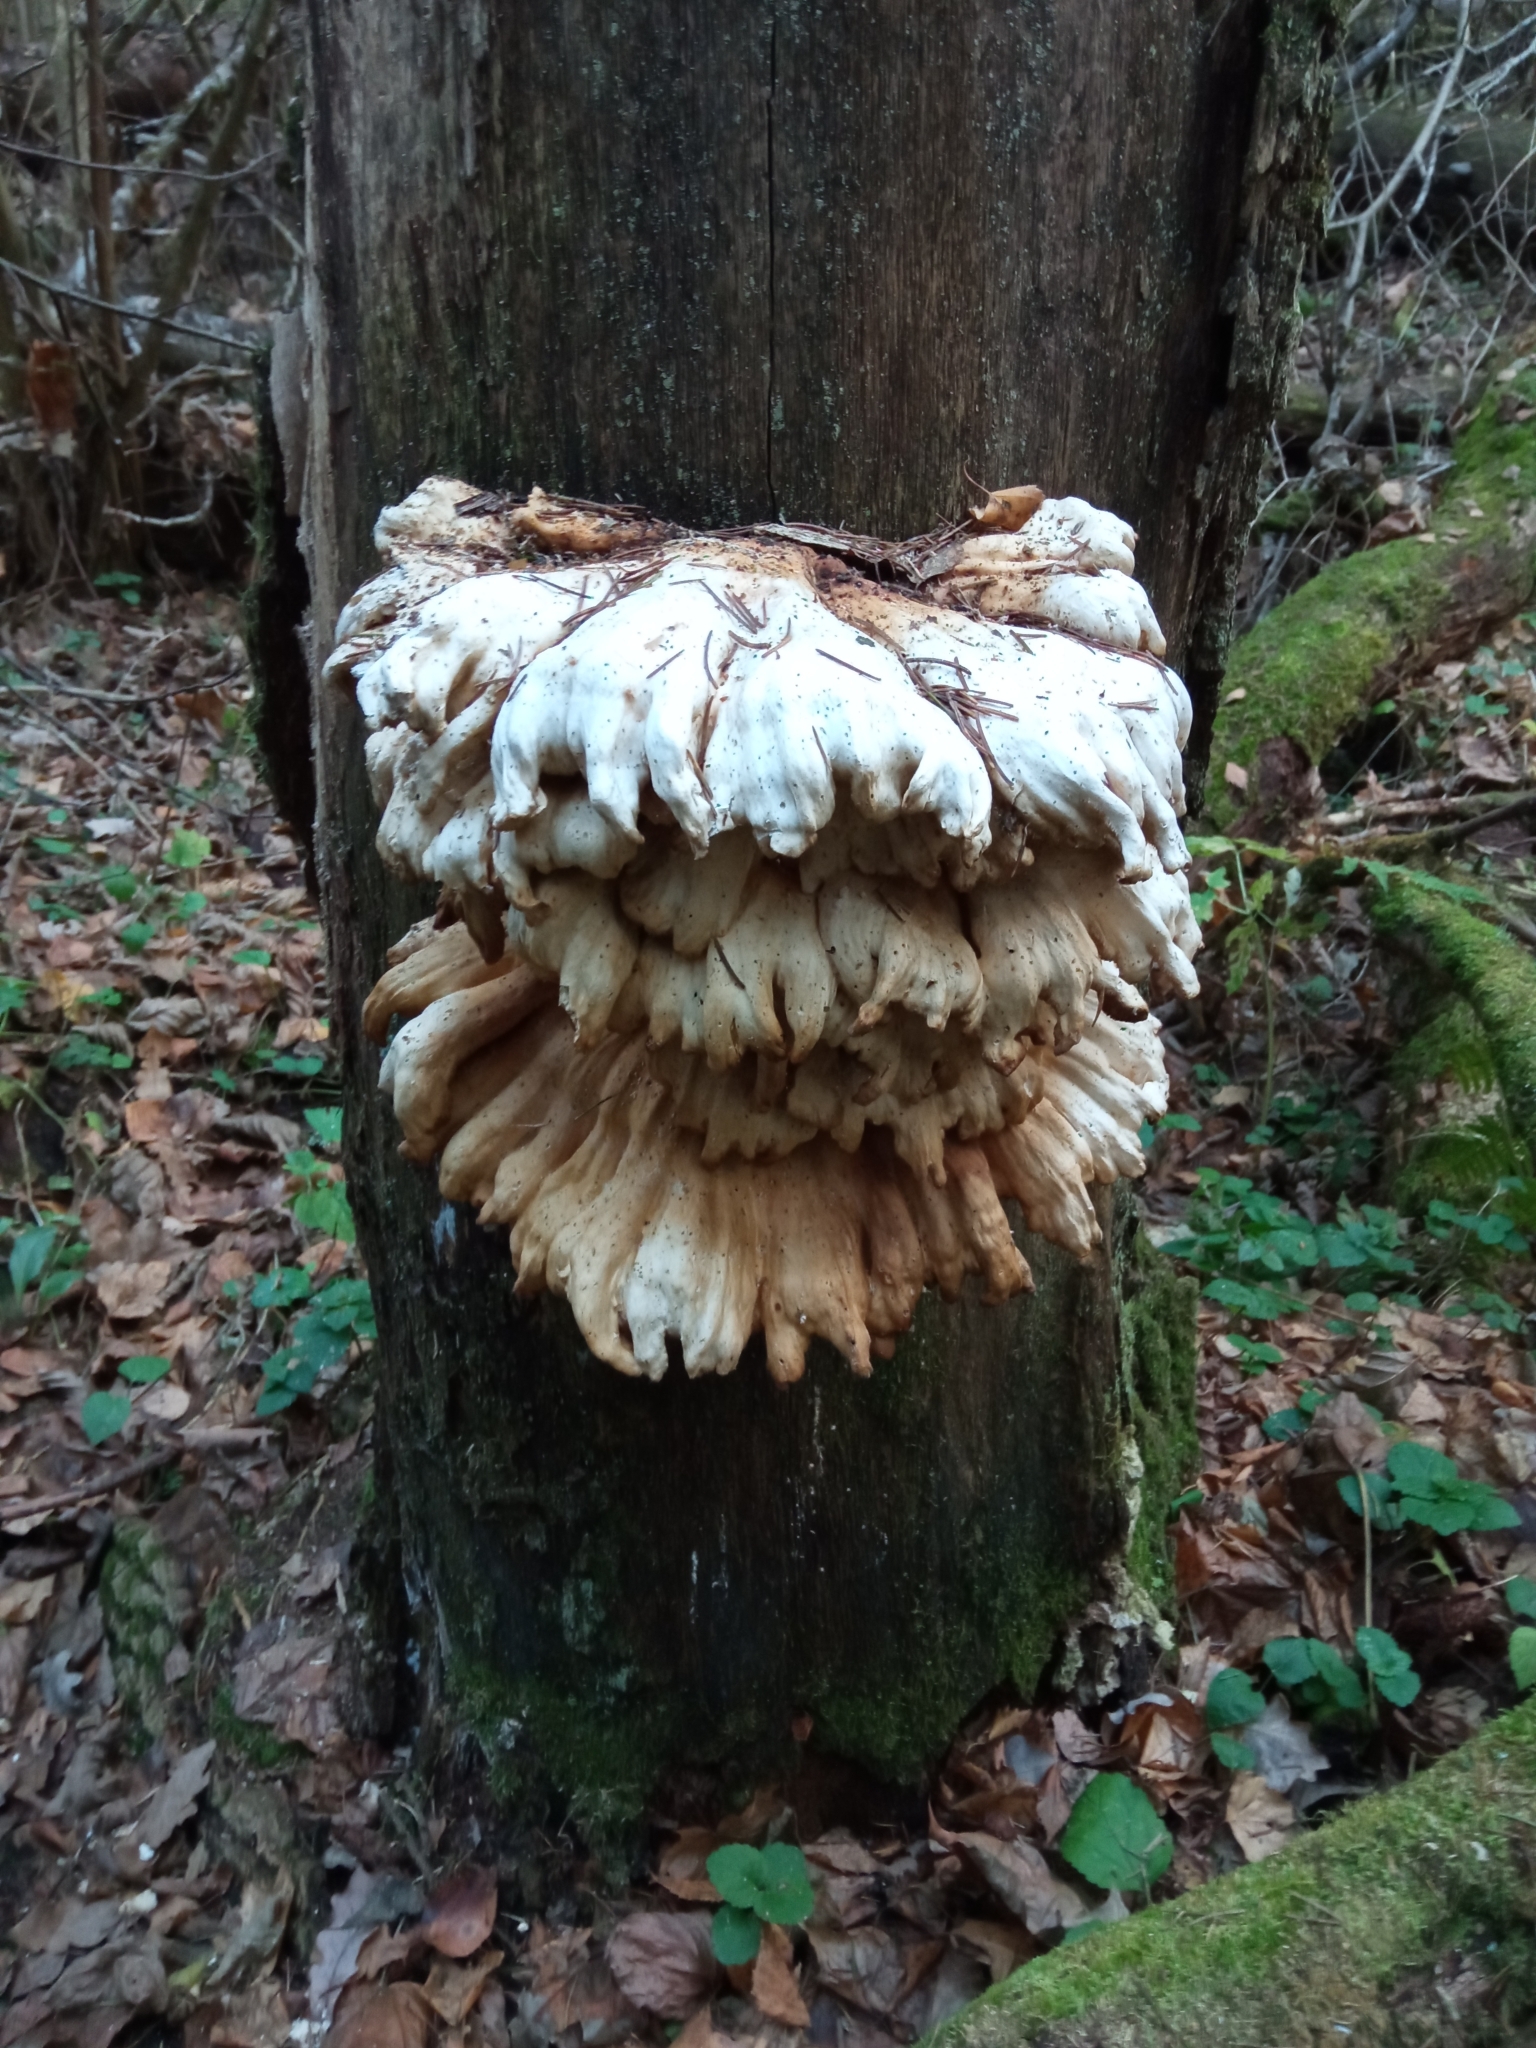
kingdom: Fungi
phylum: Basidiomycota
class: Agaricomycetes
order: Polyporales
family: Laetiporaceae
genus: Laetiporus
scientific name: Laetiporus sulphureus
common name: Chicken of the woods
